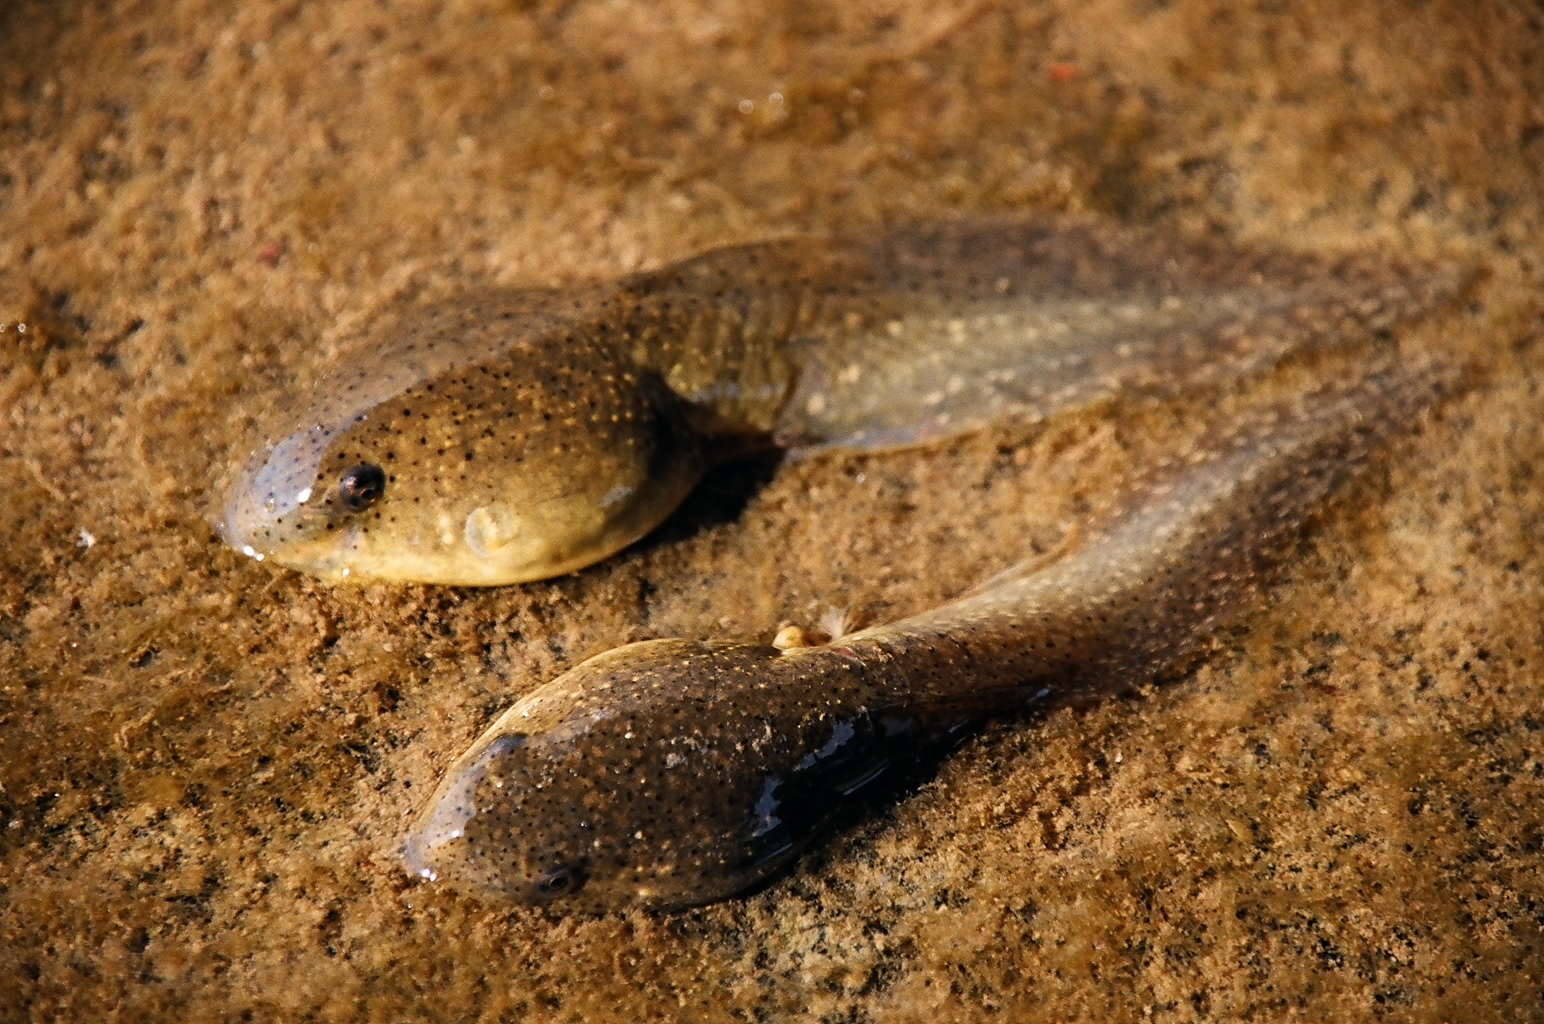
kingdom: Animalia
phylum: Chordata
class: Amphibia
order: Anura
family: Ranidae
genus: Lithobates
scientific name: Lithobates catesbeianus
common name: American bullfrog
